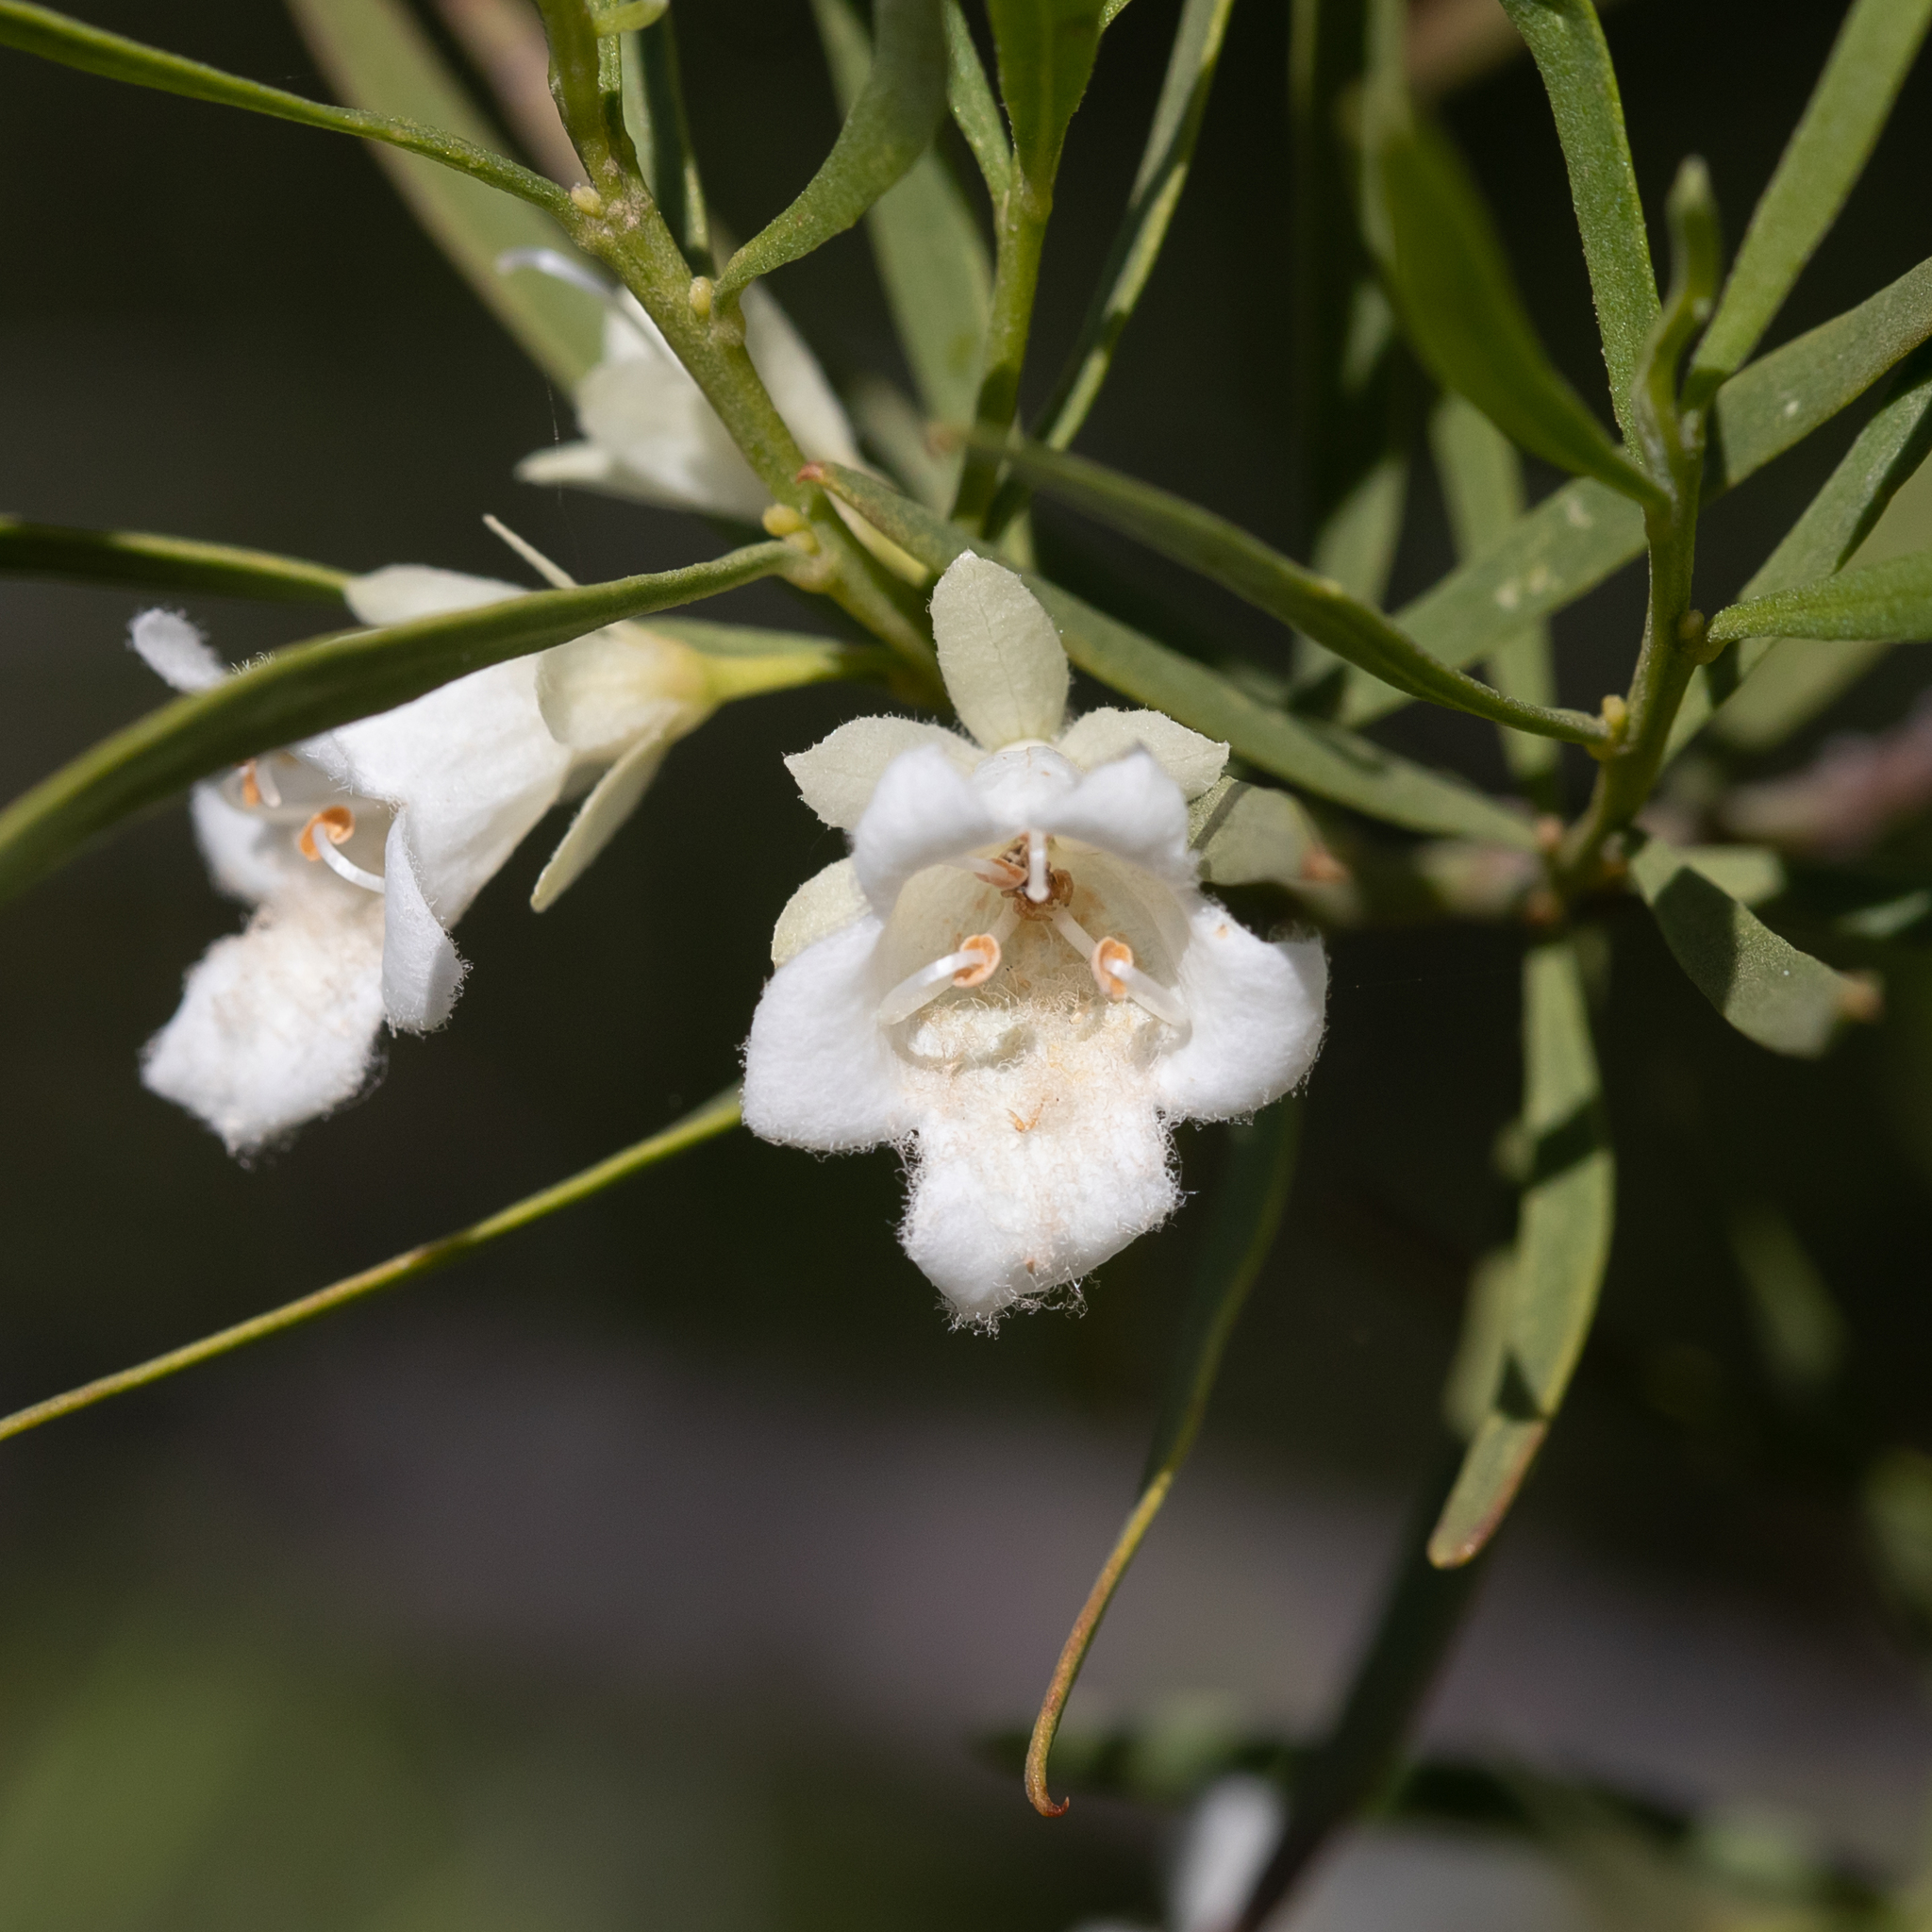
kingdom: Plantae
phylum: Tracheophyta
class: Magnoliopsida
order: Lamiales
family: Scrophulariaceae
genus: Eremophila
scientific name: Eremophila mitchellii
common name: Bastard-sandalwood
